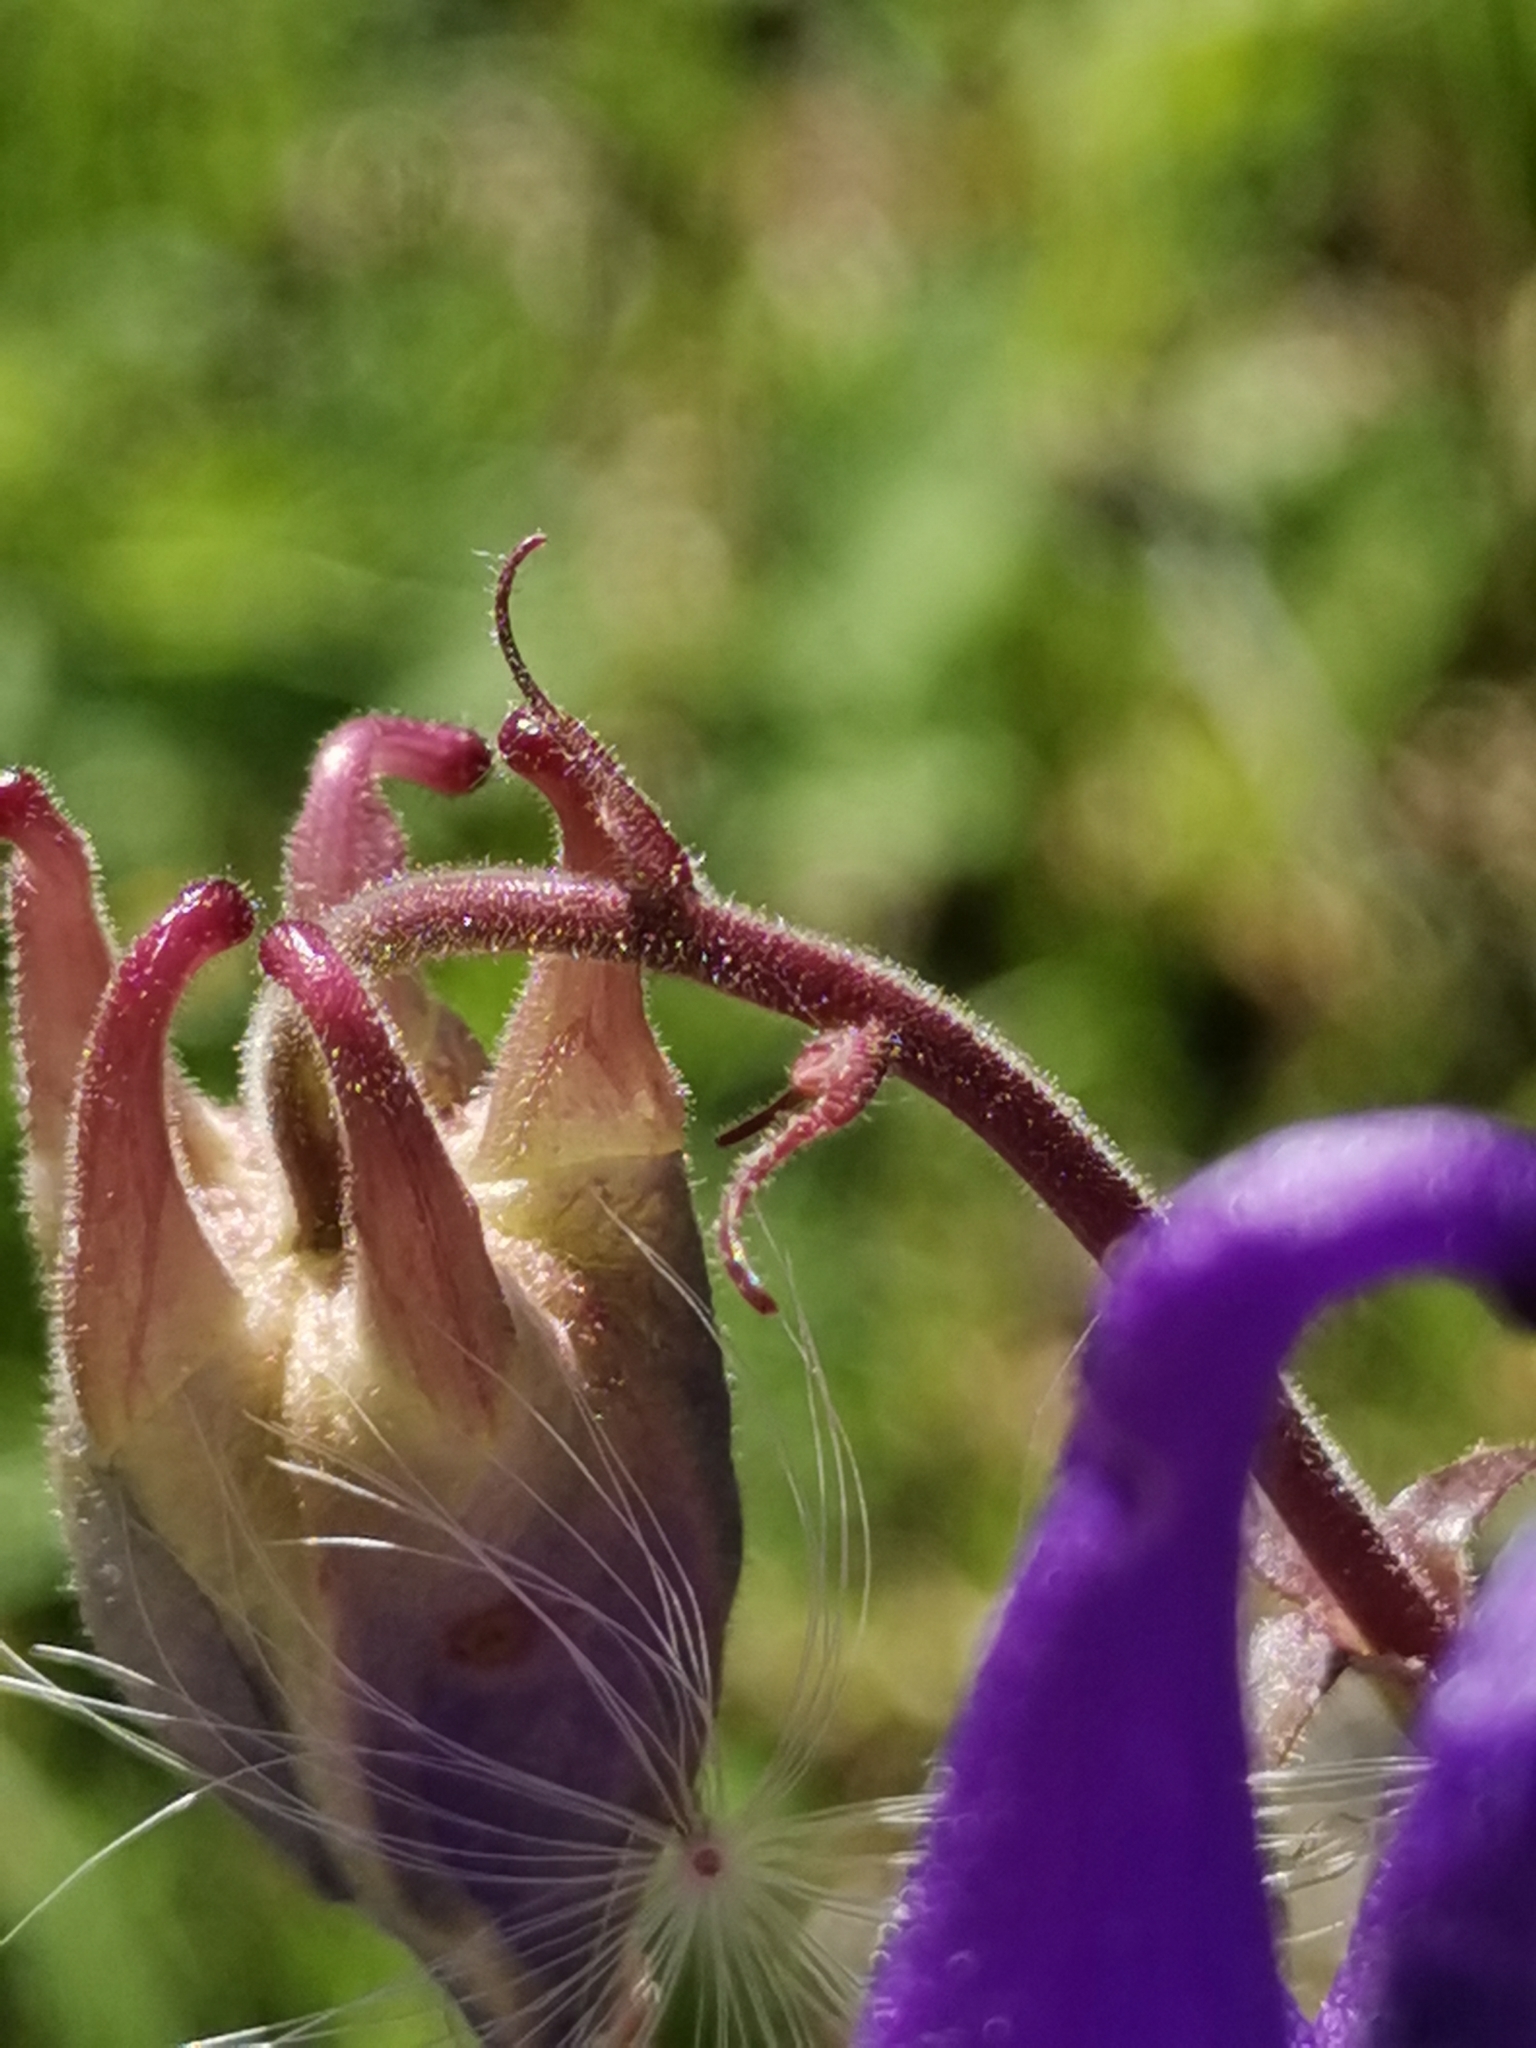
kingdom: Plantae
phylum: Tracheophyta
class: Magnoliopsida
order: Ranunculales
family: Ranunculaceae
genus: Aquilegia
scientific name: Aquilegia nigricans
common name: Bulgarian columbine
